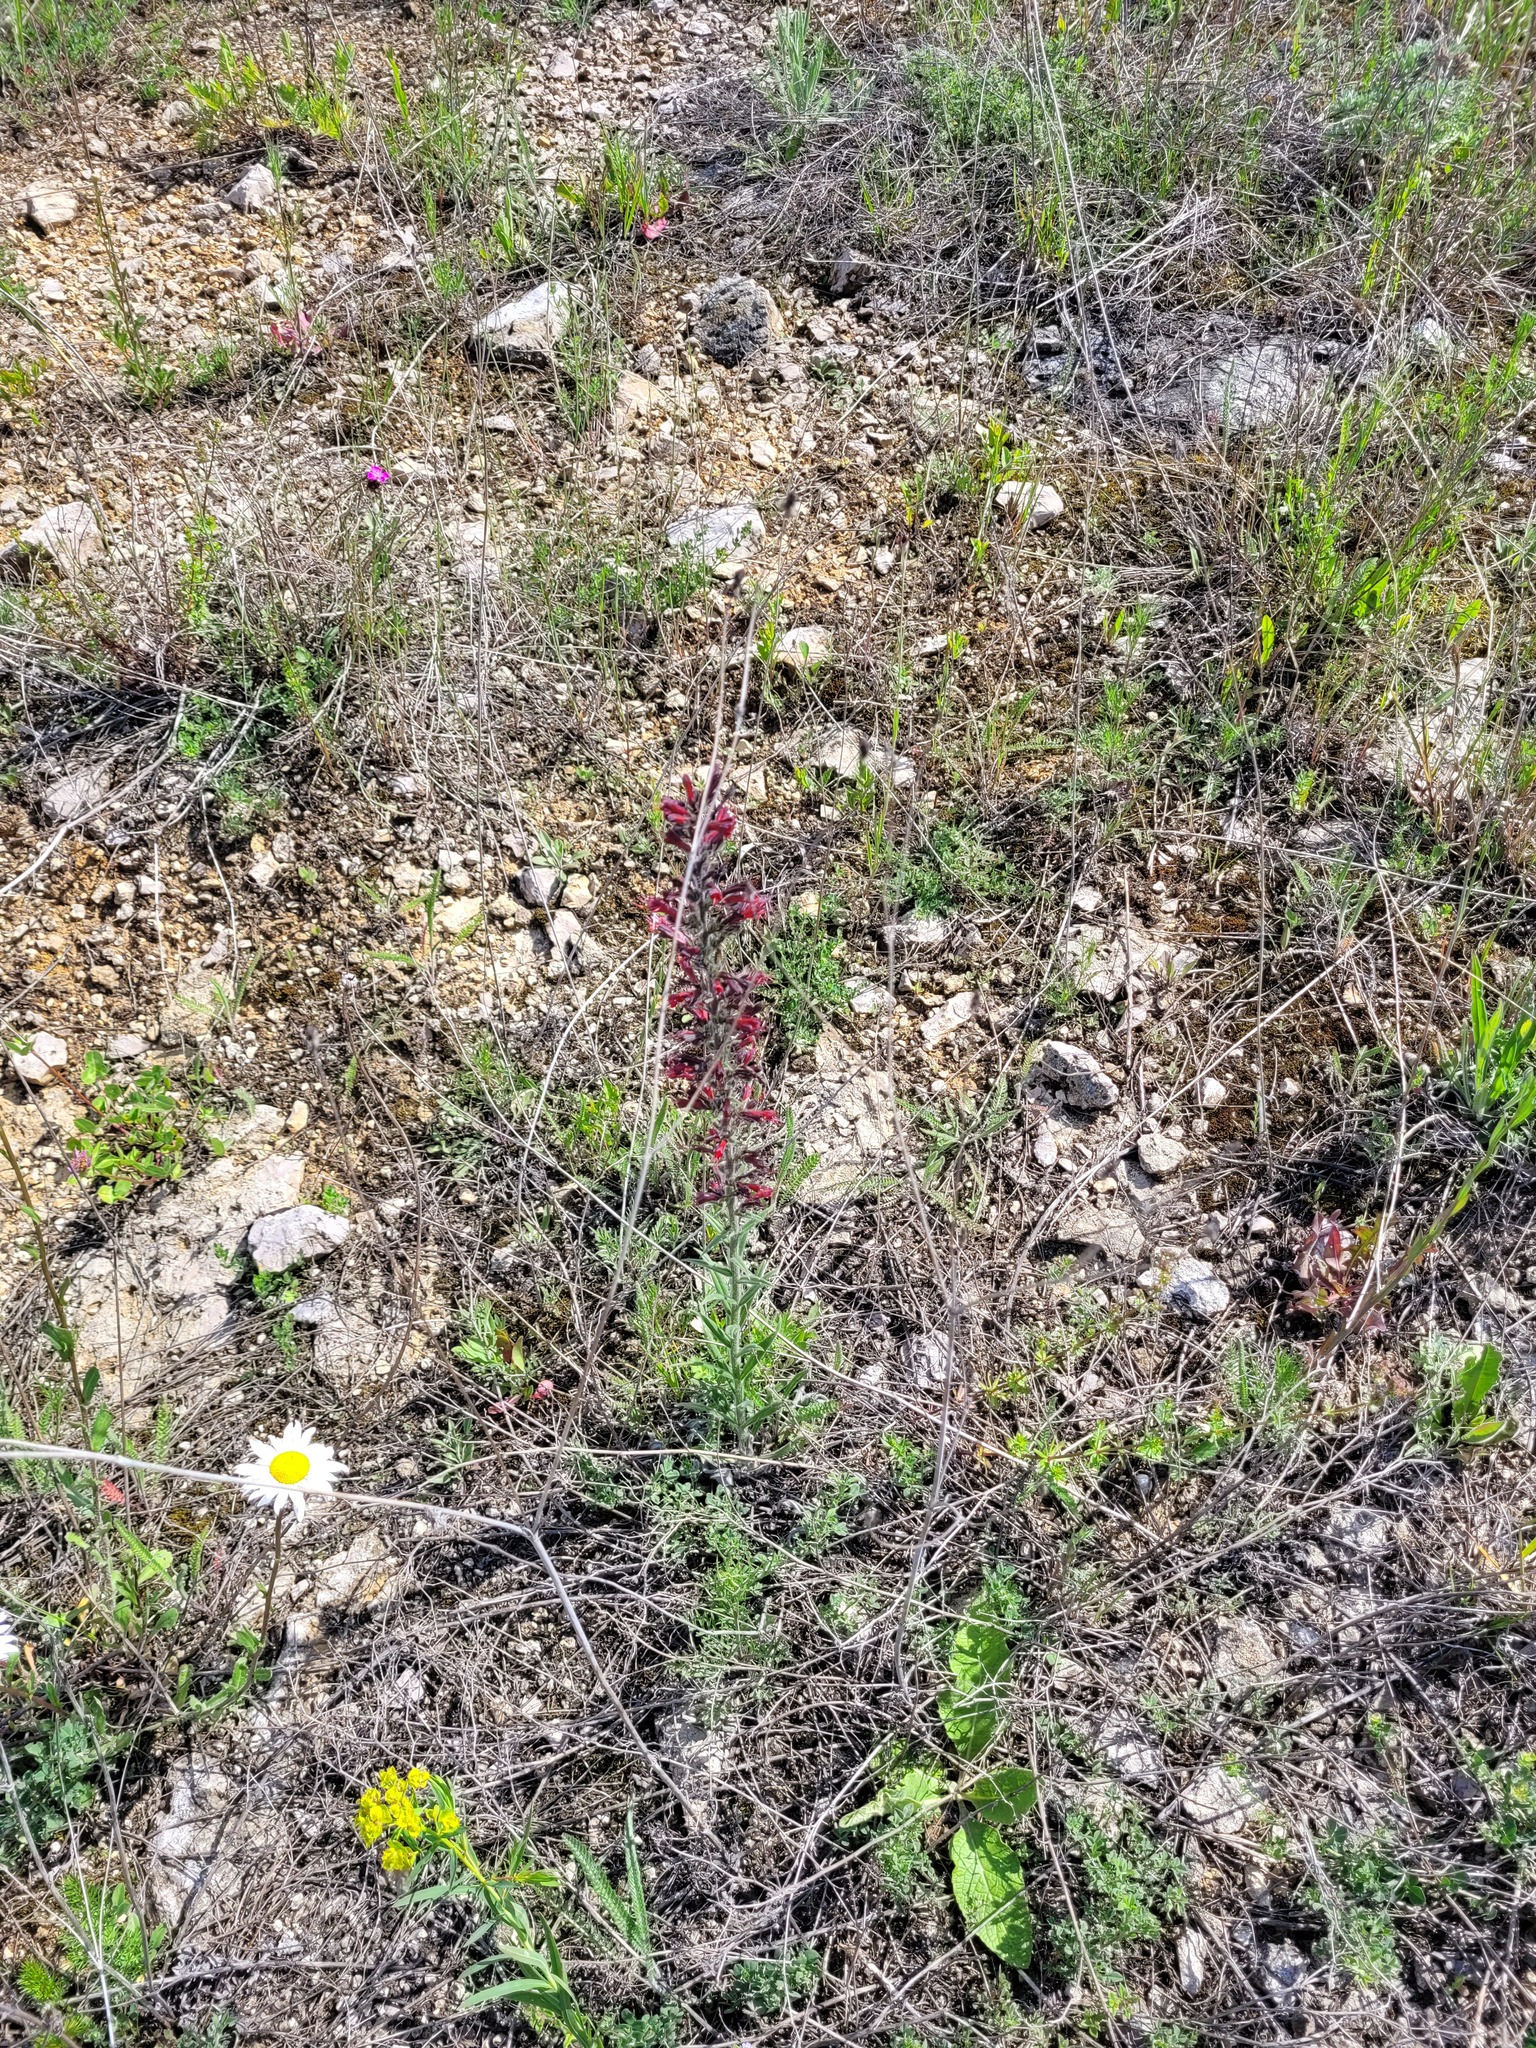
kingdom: Plantae
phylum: Tracheophyta
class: Magnoliopsida
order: Boraginales
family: Boraginaceae
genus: Pontechium
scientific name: Pontechium maculatum
